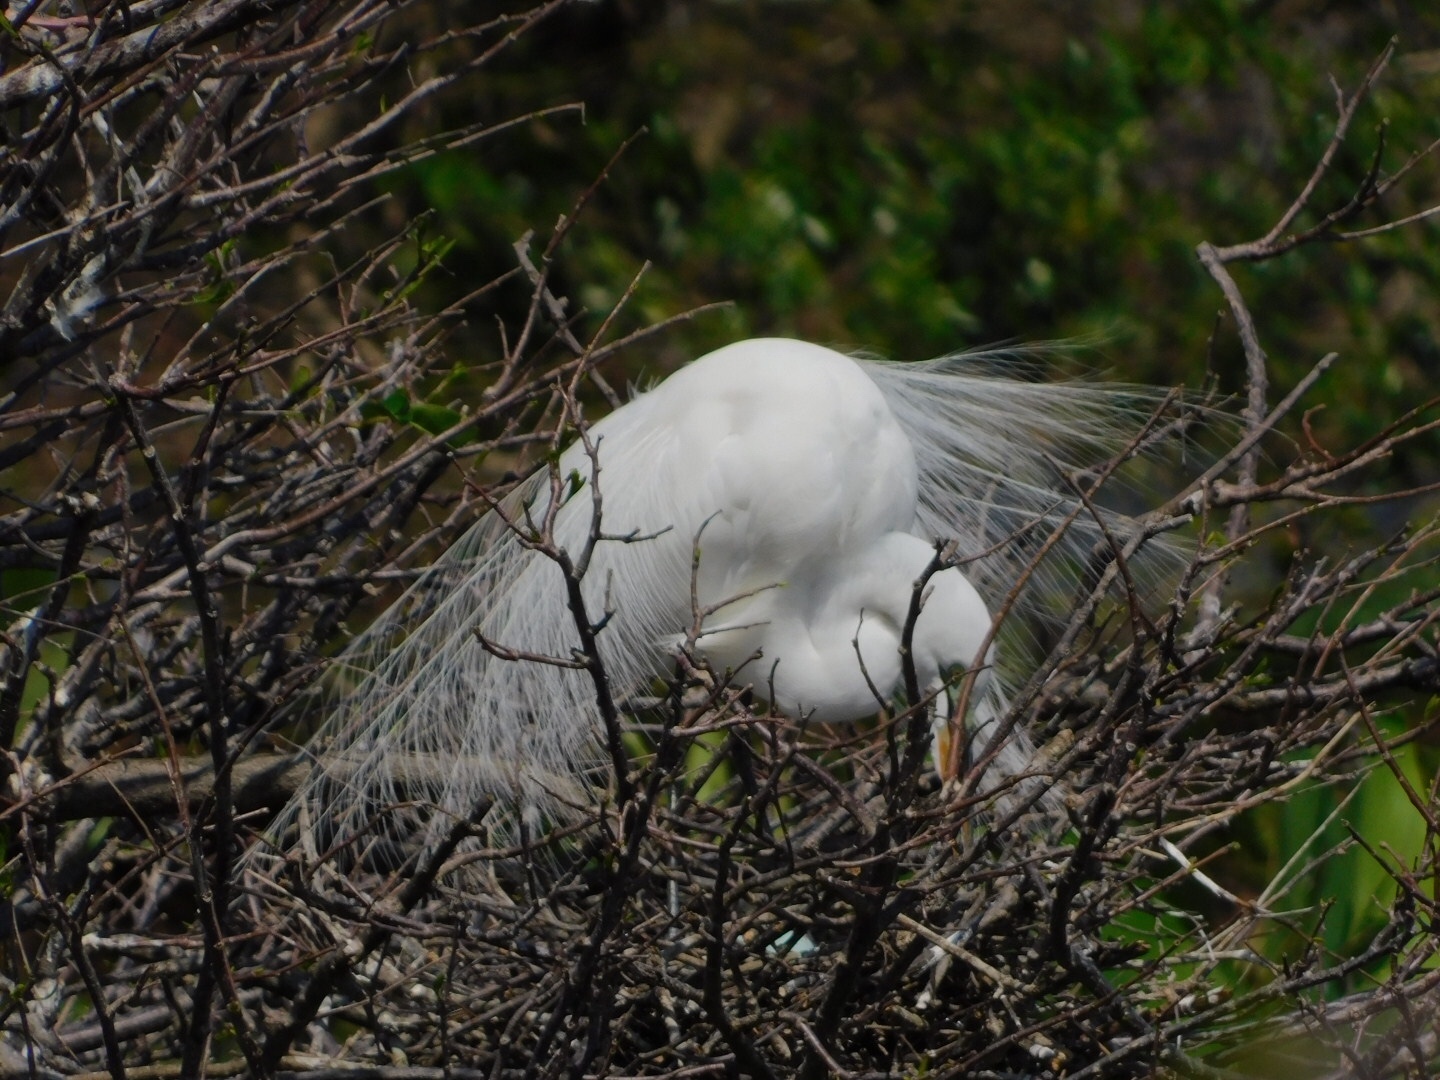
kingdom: Animalia
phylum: Chordata
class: Aves
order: Pelecaniformes
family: Ardeidae
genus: Ardea
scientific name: Ardea alba
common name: Great egret
